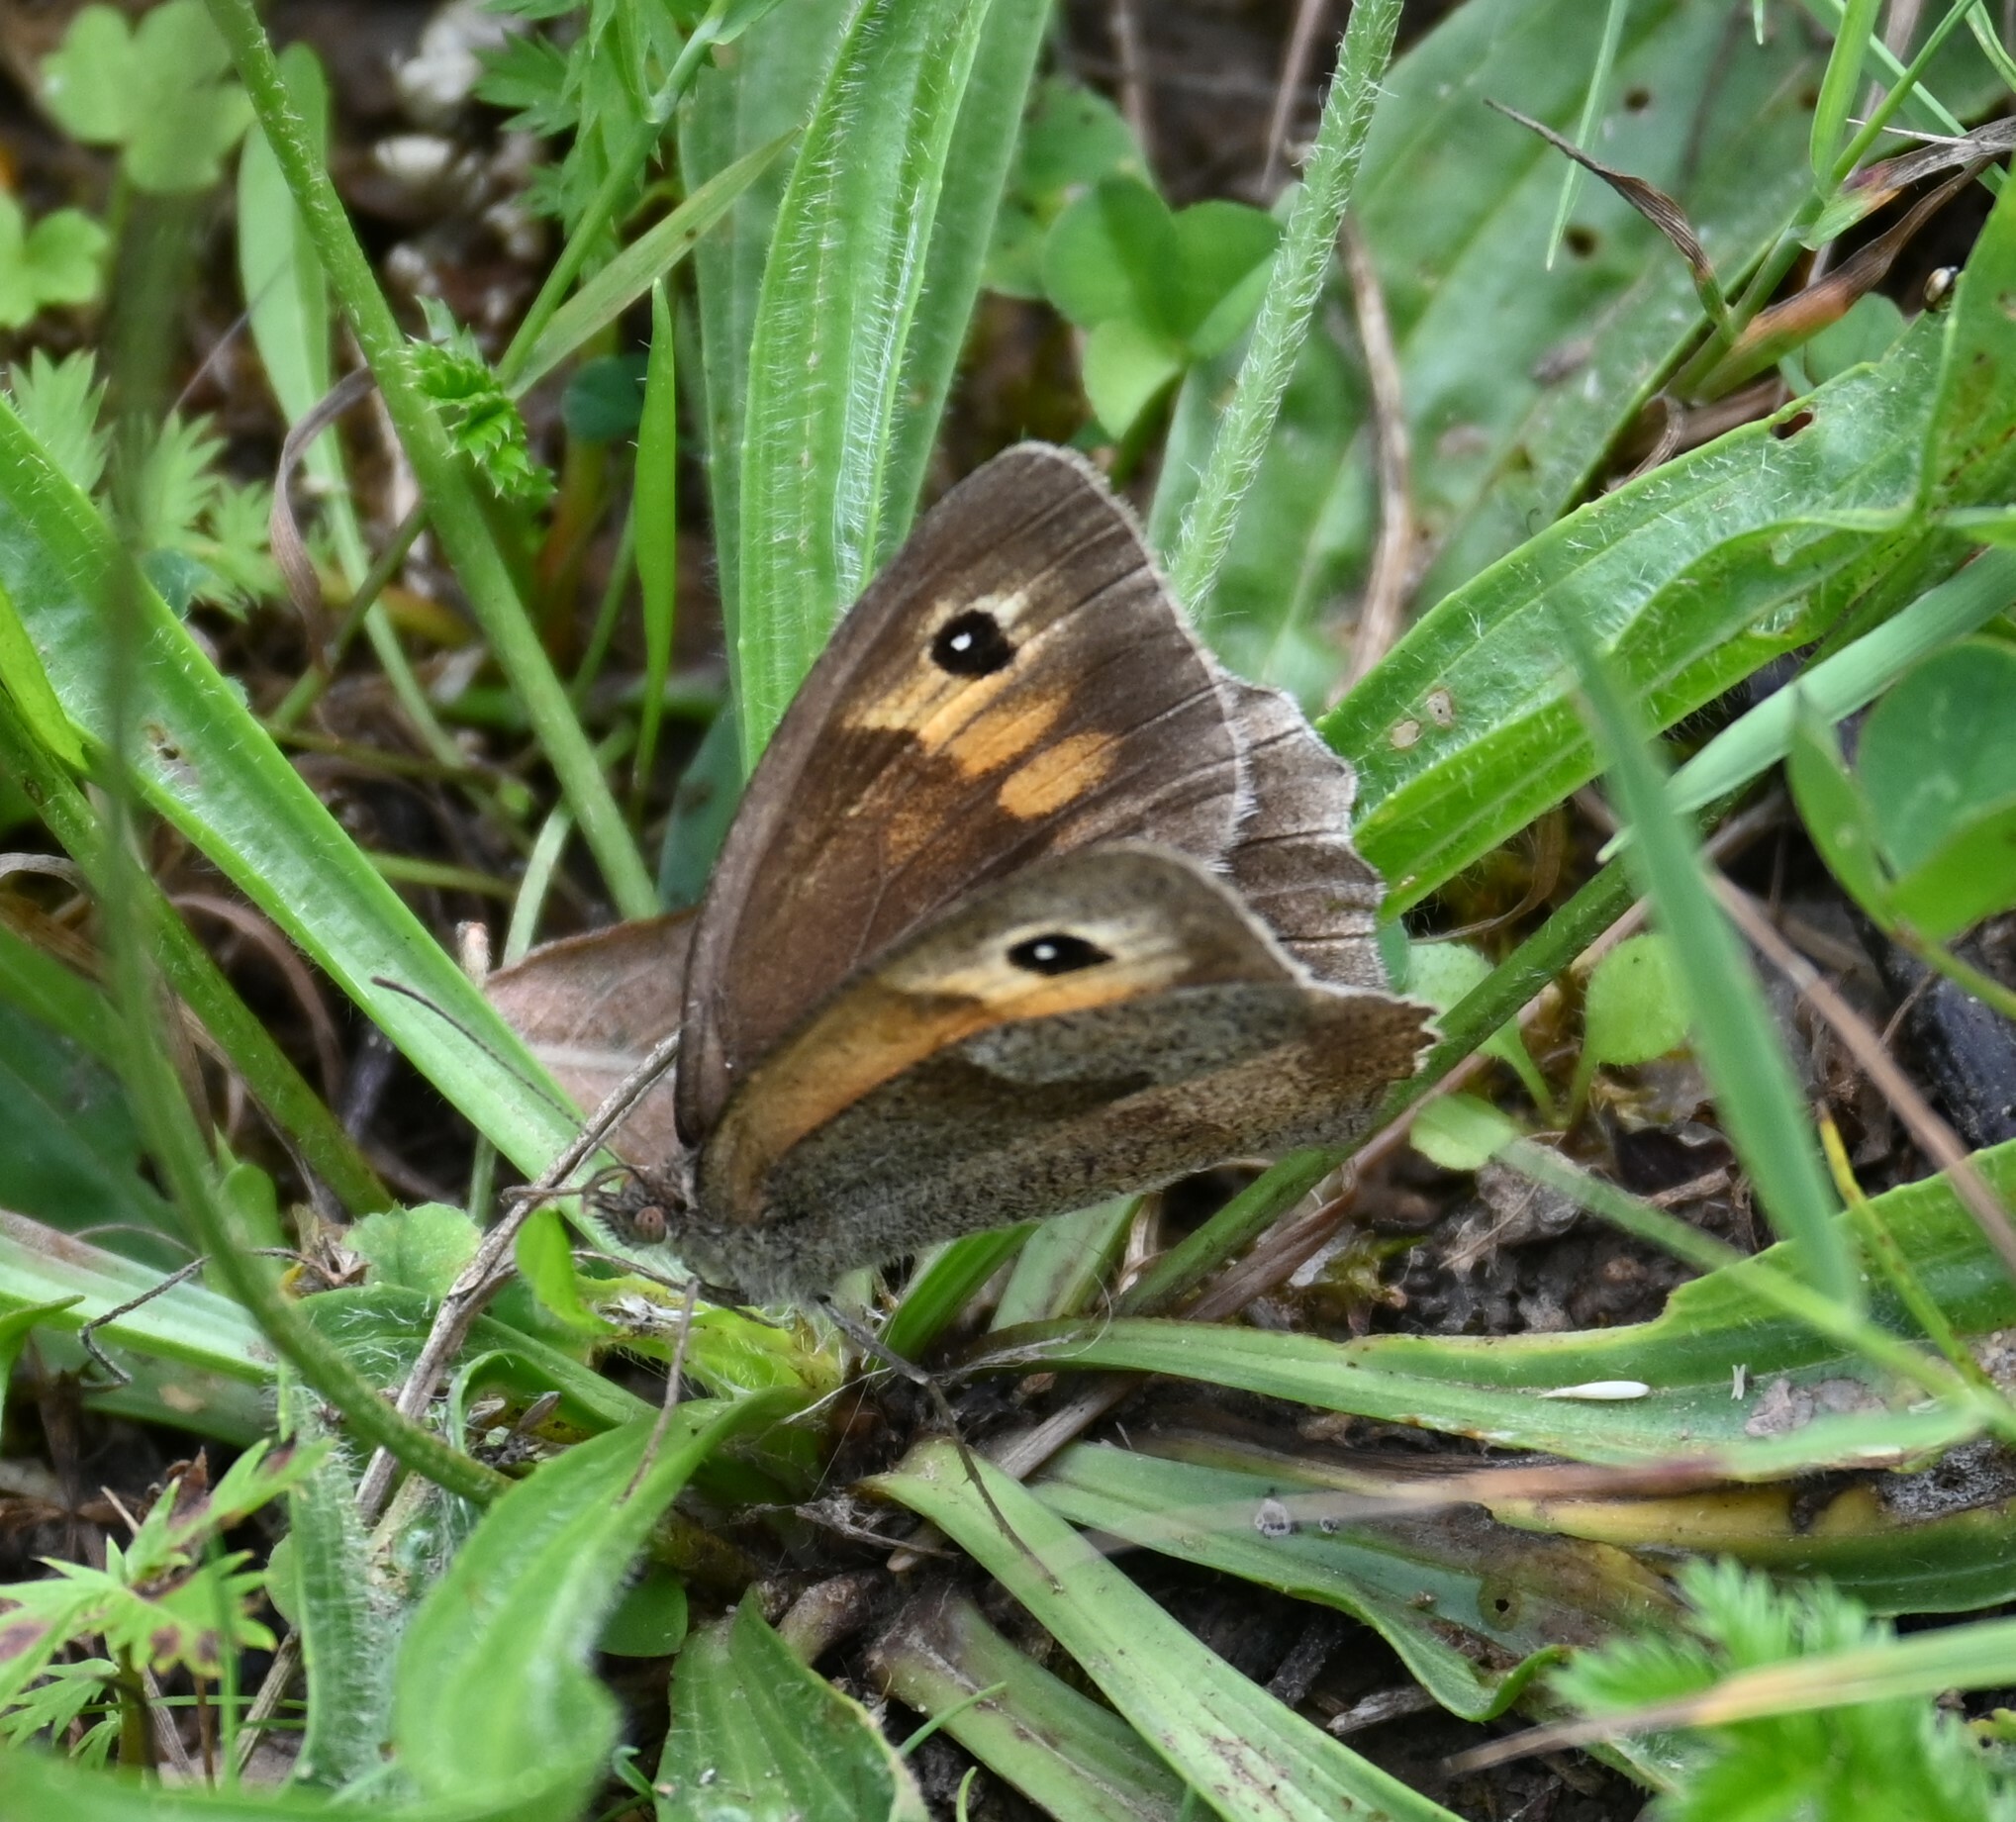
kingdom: Animalia
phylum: Arthropoda
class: Insecta
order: Lepidoptera
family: Nymphalidae
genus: Maniola
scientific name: Maniola jurtina
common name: Meadow brown
